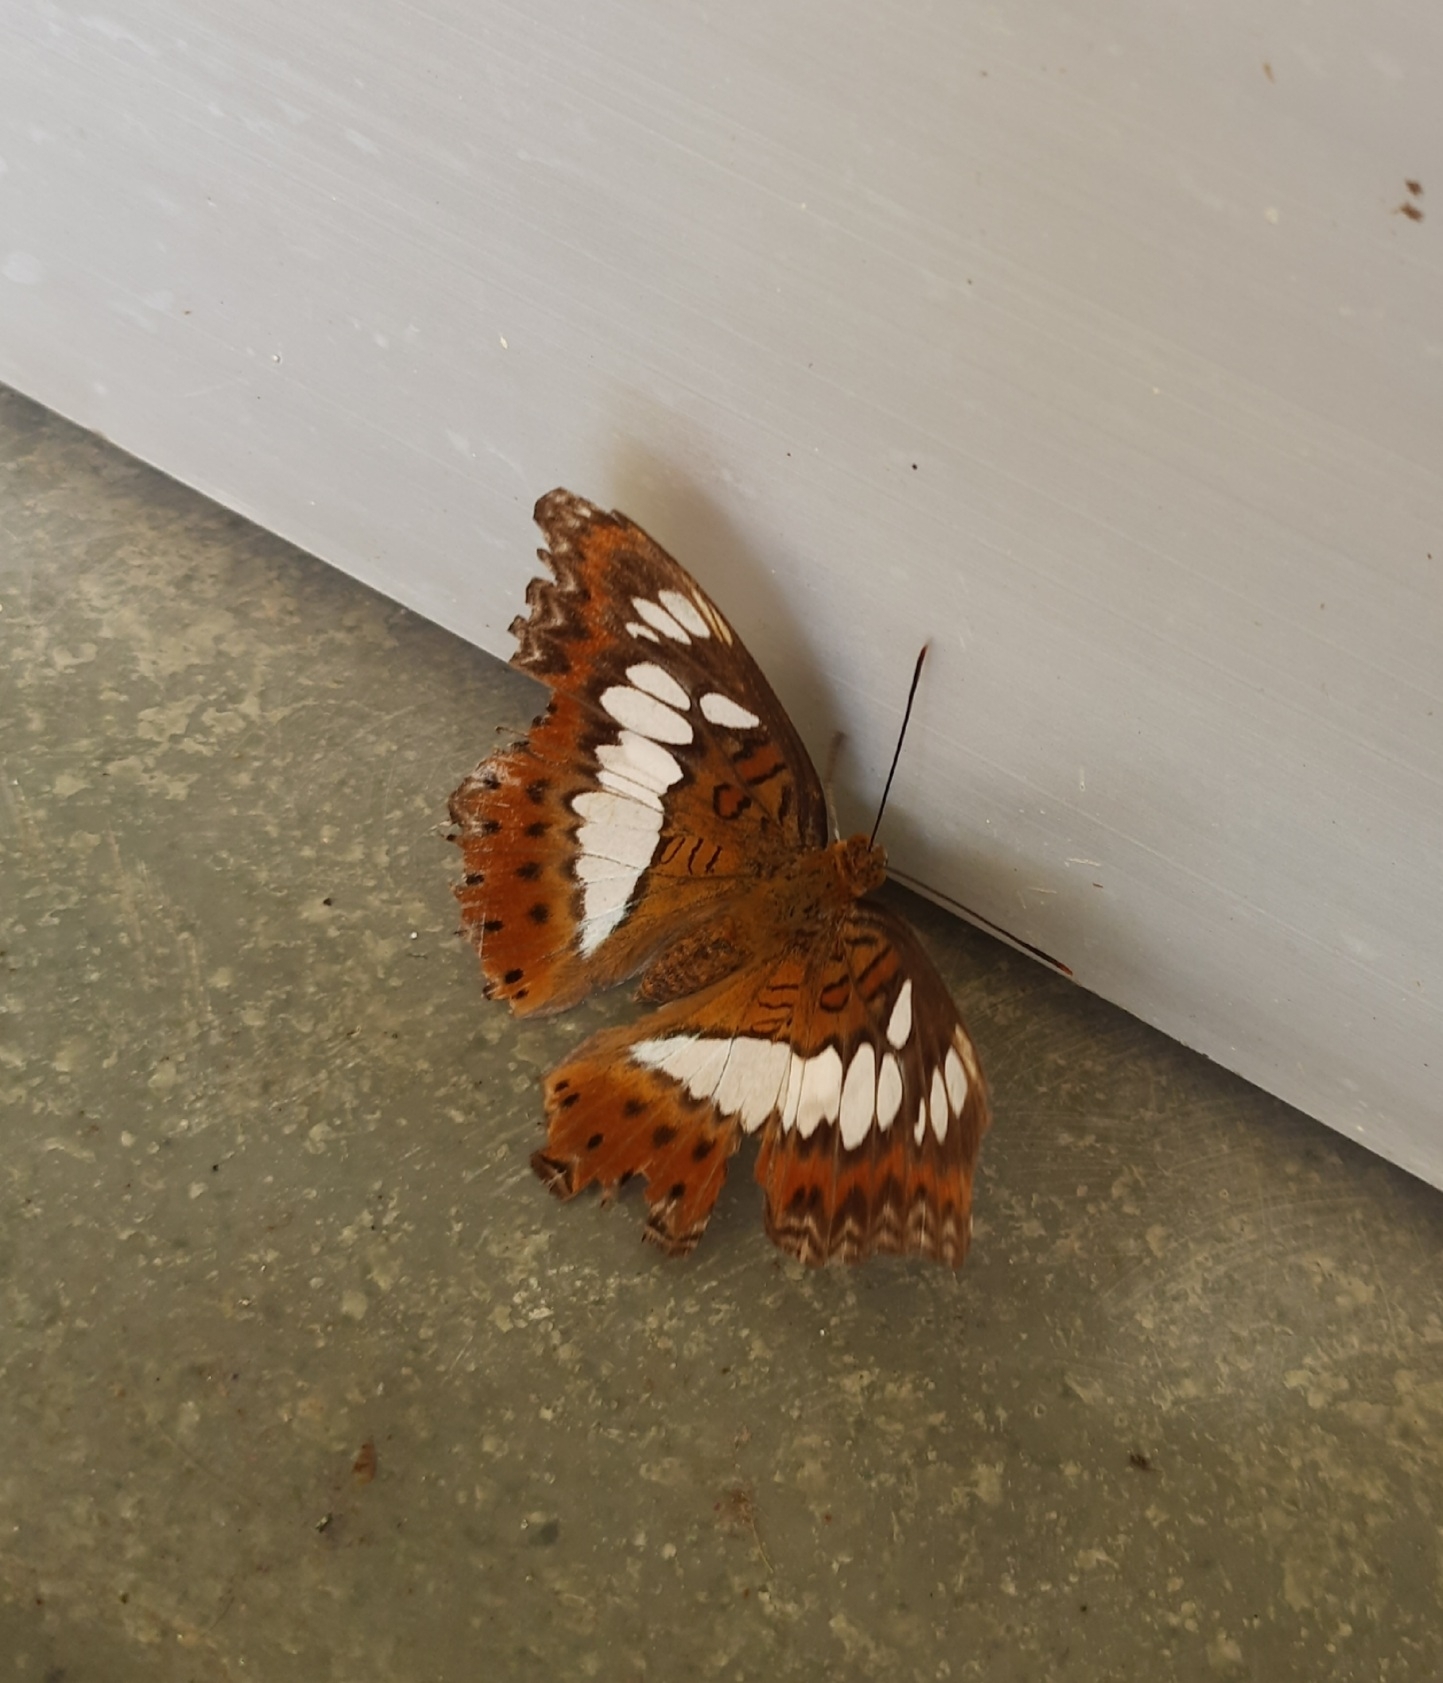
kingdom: Animalia
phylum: Arthropoda
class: Insecta
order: Lepidoptera
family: Nymphalidae
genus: Limenitis
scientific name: Limenitis Moduza procris
